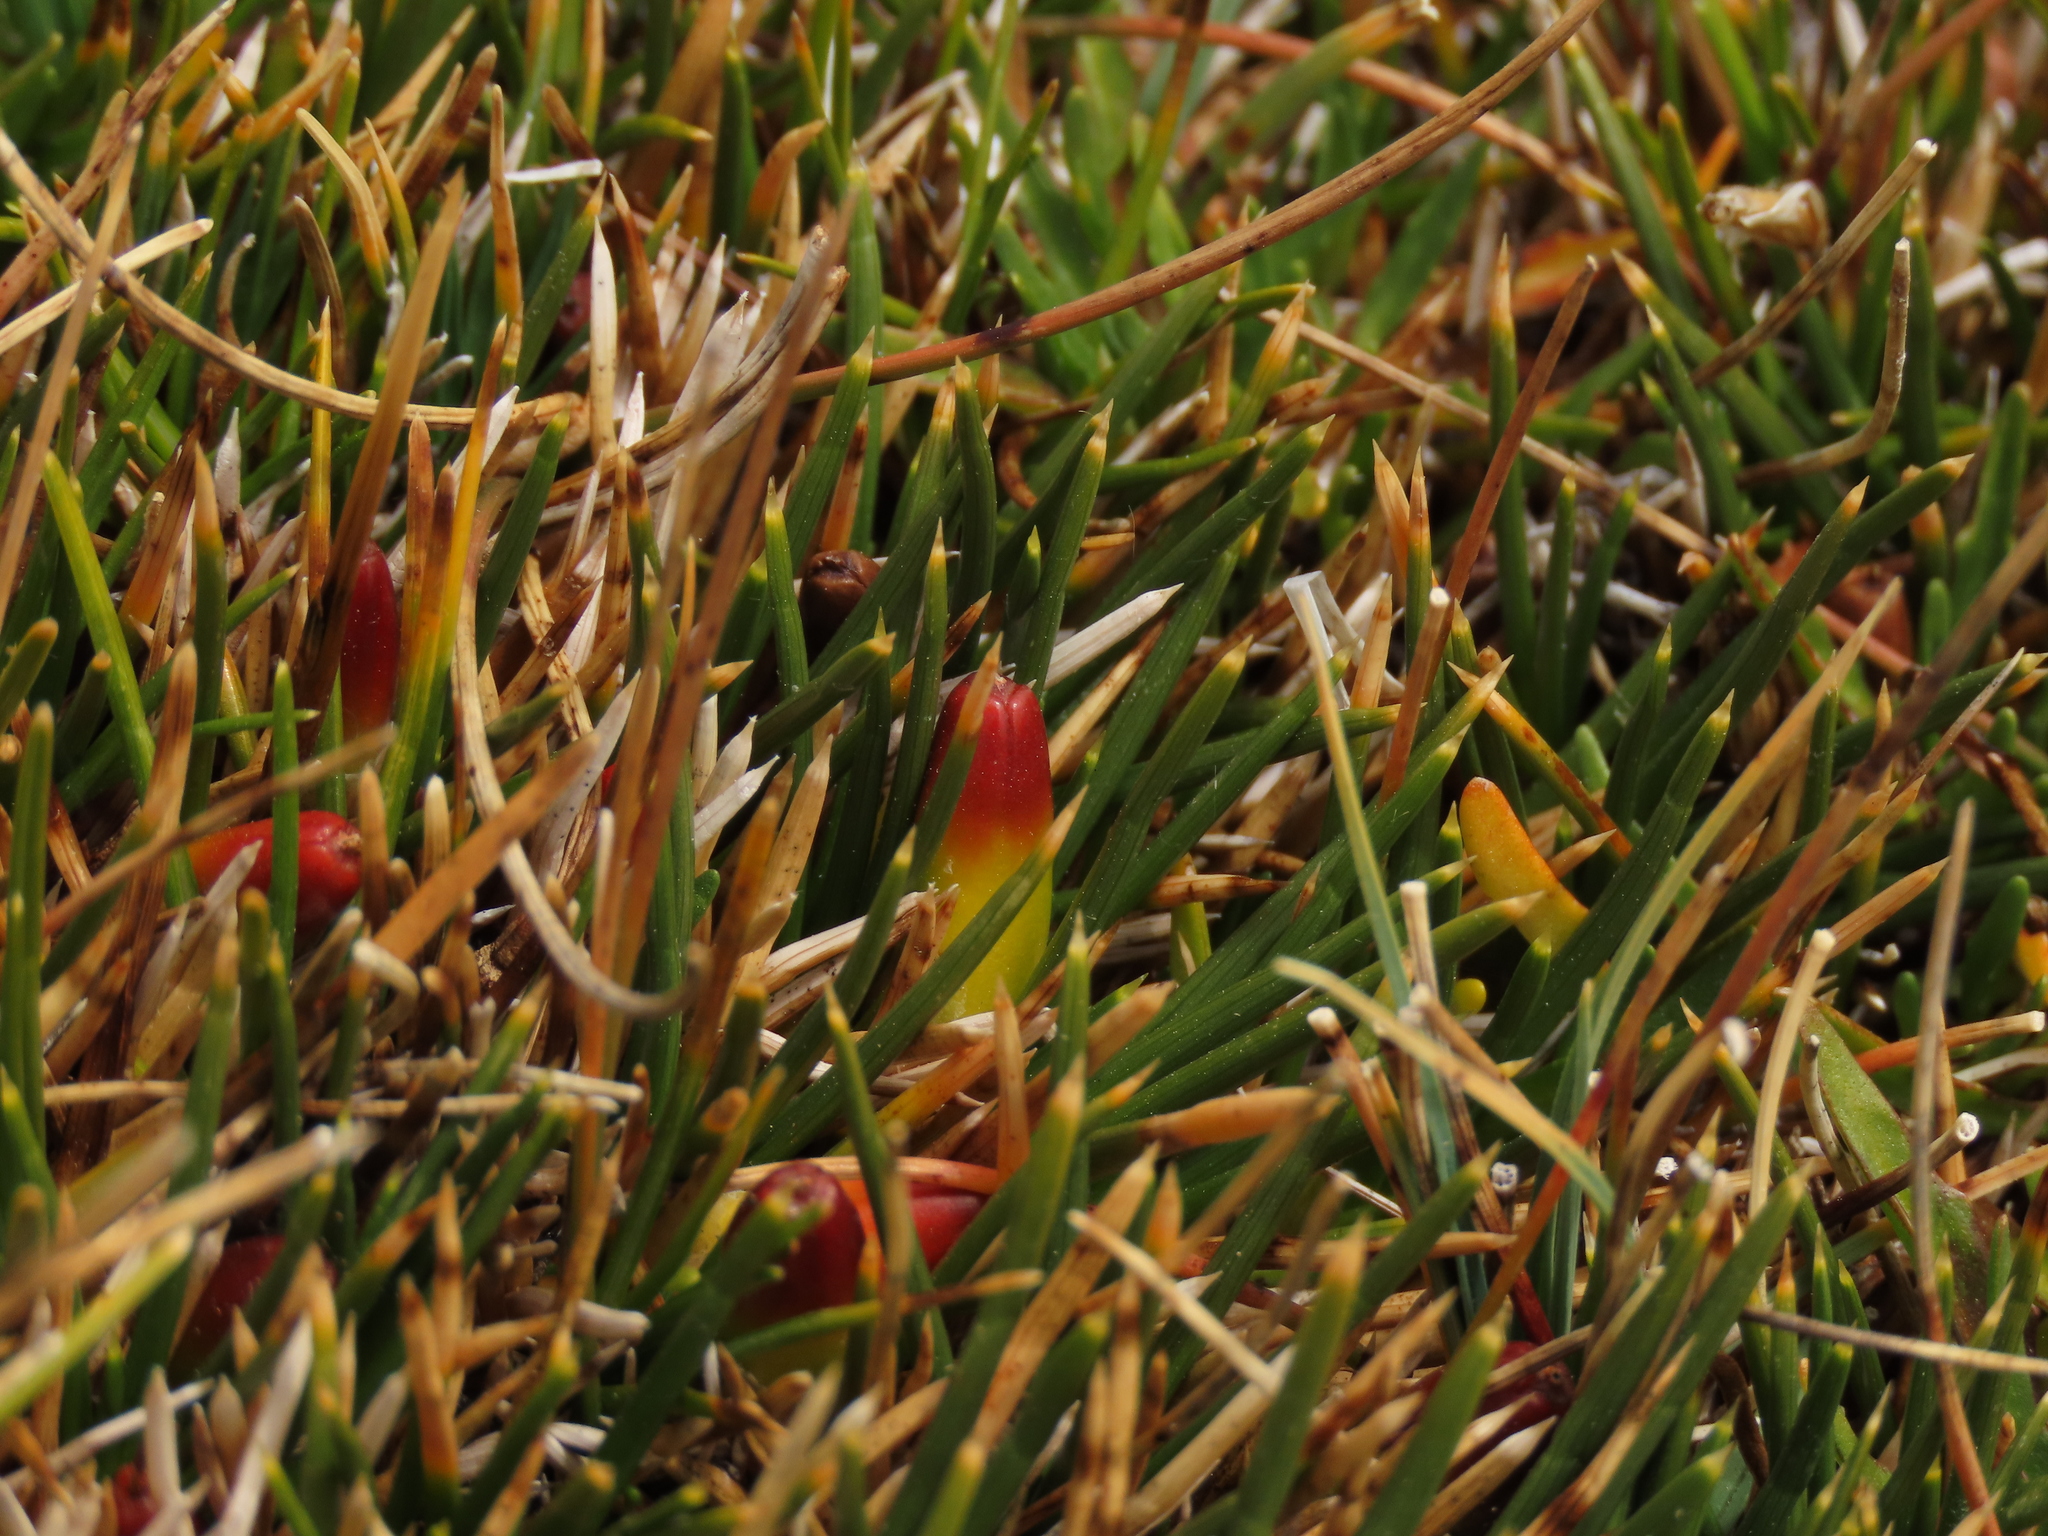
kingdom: Plantae
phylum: Tracheophyta
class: Liliopsida
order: Poales
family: Juncaceae
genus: Oxychloe
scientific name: Oxychloe andina
